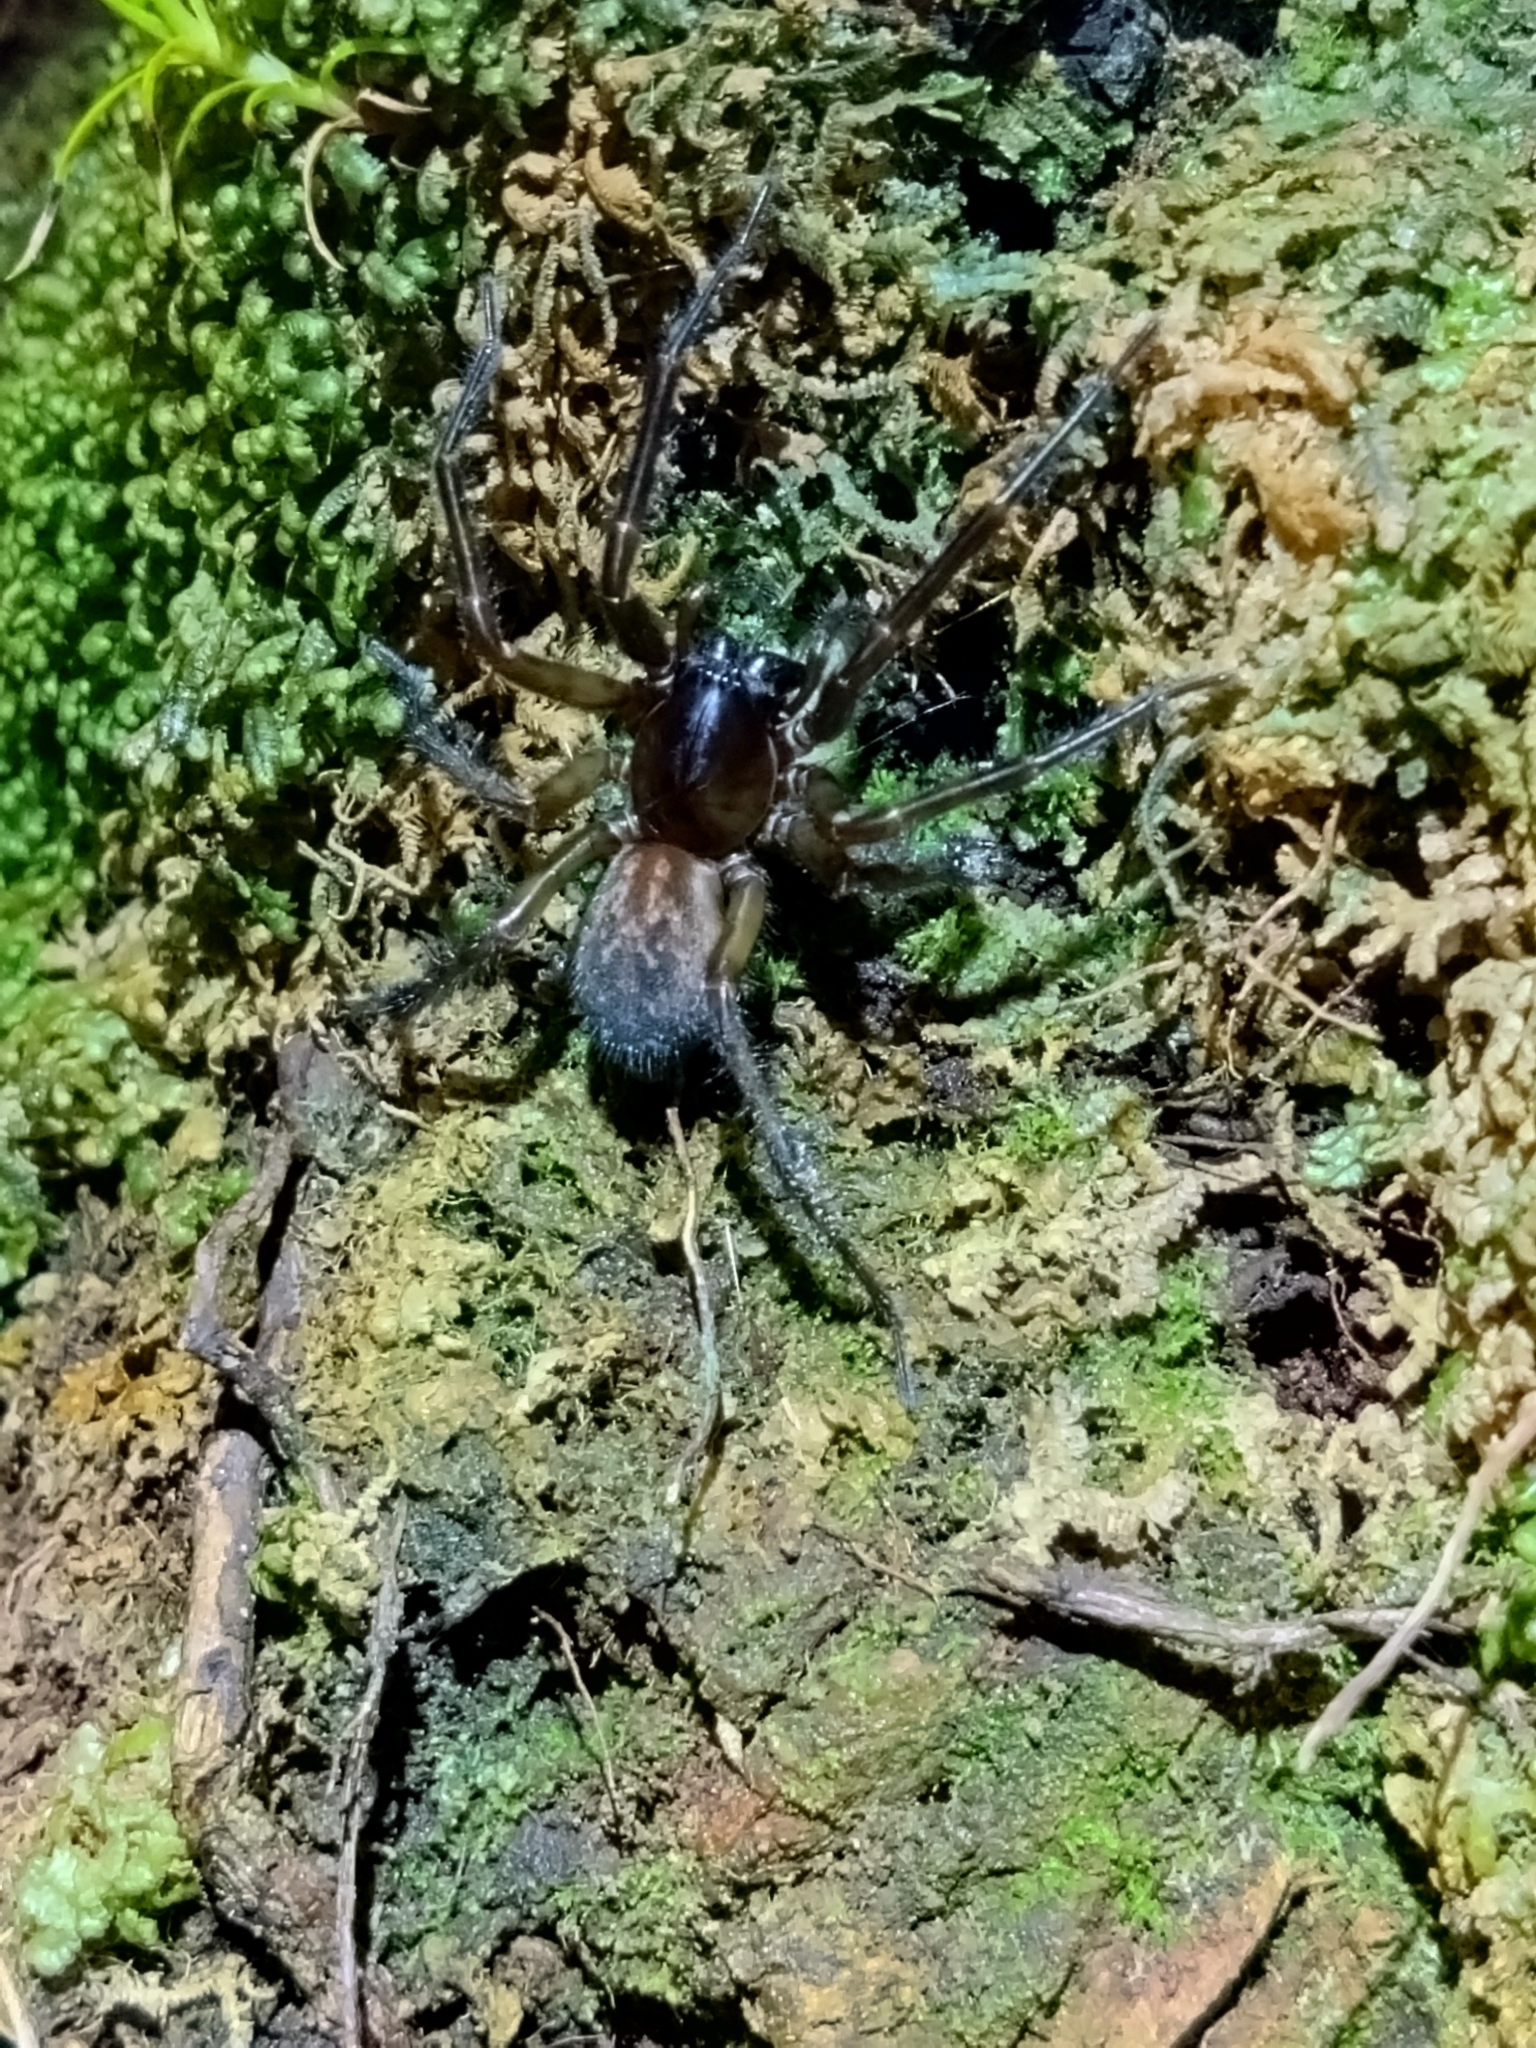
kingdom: Animalia
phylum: Arthropoda
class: Arachnida
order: Araneae
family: Stiphidiidae
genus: Neoramia
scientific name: Neoramia crucifera
